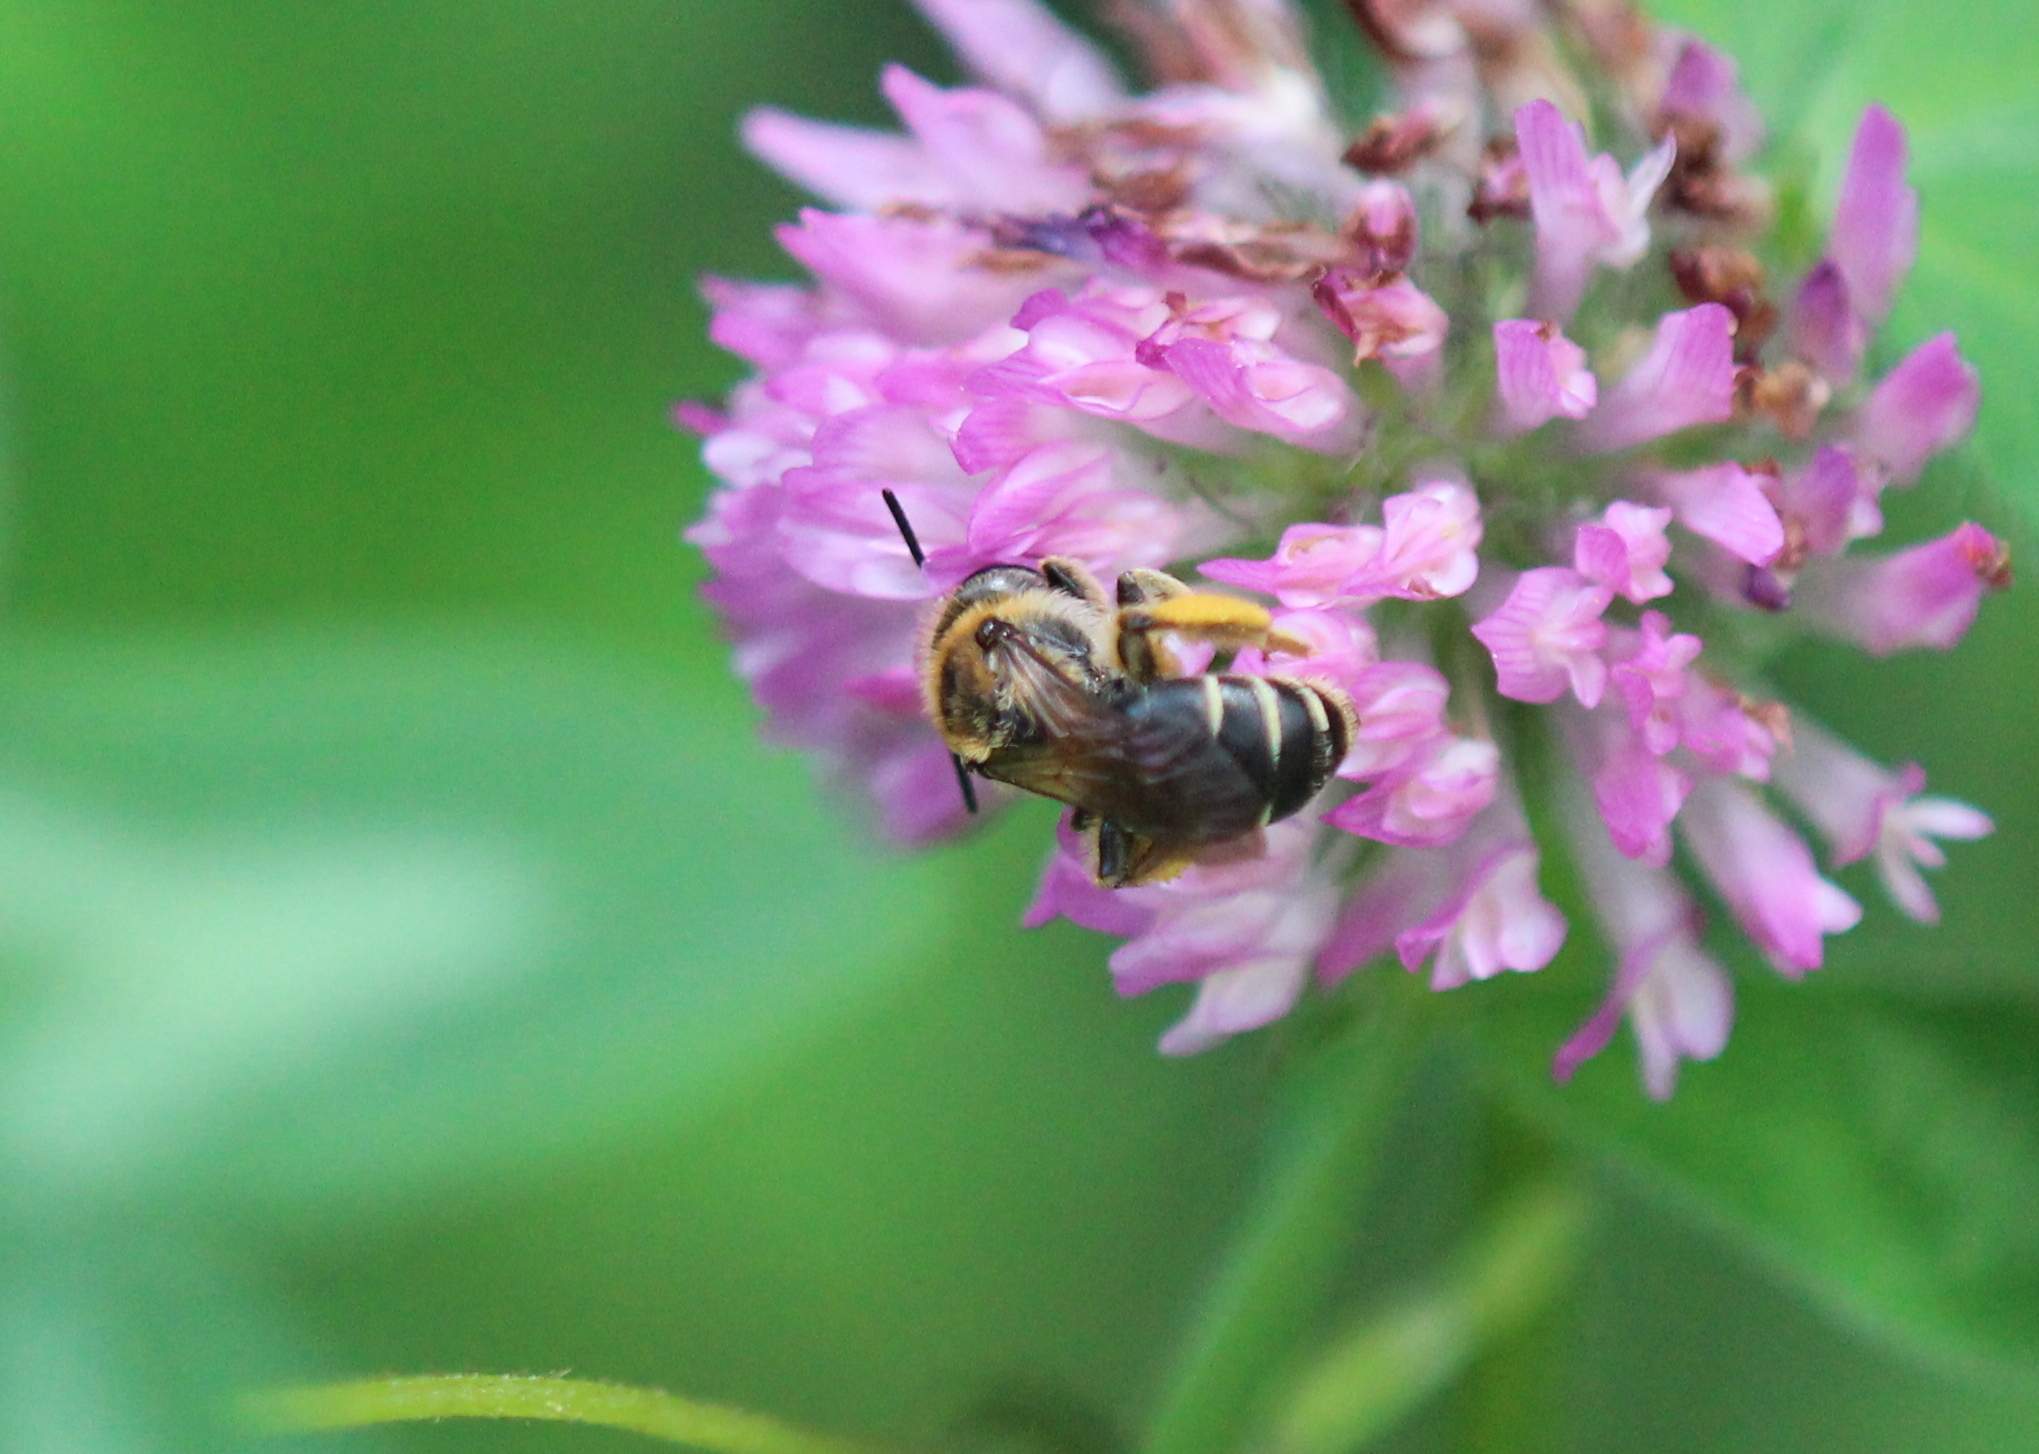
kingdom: Animalia
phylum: Arthropoda
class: Insecta
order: Hymenoptera
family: Andrenidae
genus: Andrena
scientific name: Andrena wilkella
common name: Wilke's mining bee
